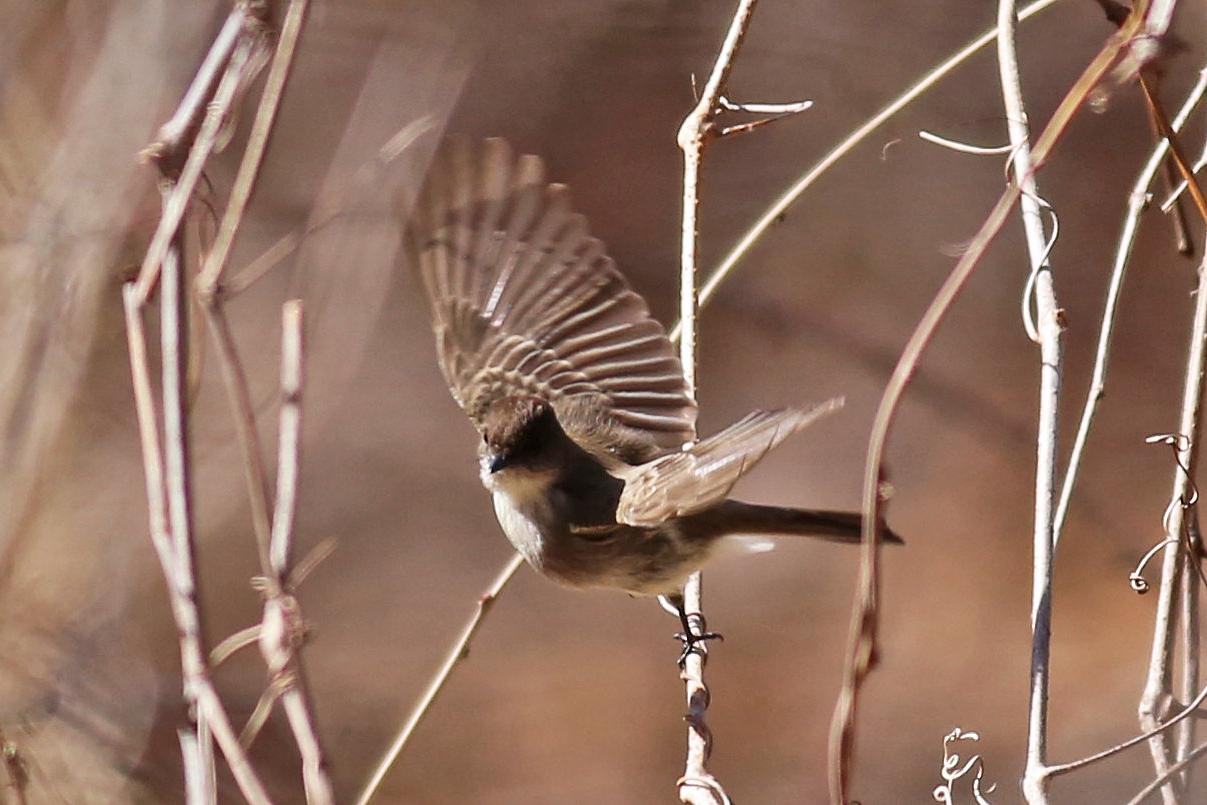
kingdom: Animalia
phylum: Chordata
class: Aves
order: Passeriformes
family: Tyrannidae
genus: Sayornis
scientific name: Sayornis phoebe
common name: Eastern phoebe
